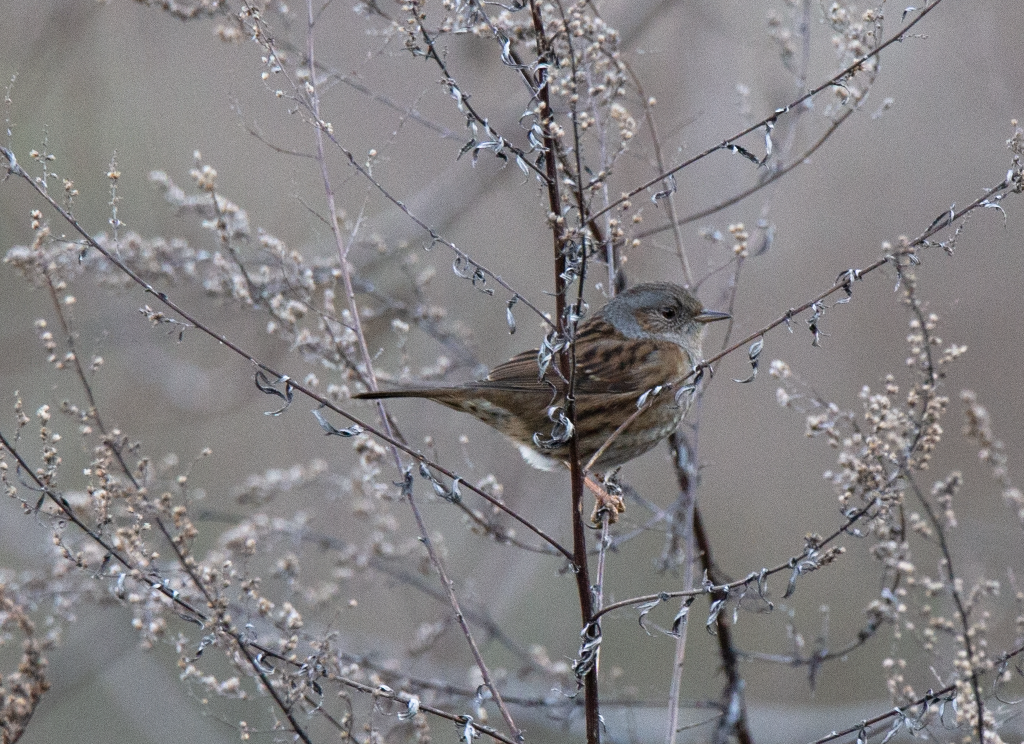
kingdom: Animalia
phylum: Chordata
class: Aves
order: Passeriformes
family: Prunellidae
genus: Prunella
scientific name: Prunella modularis
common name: Dunnock
